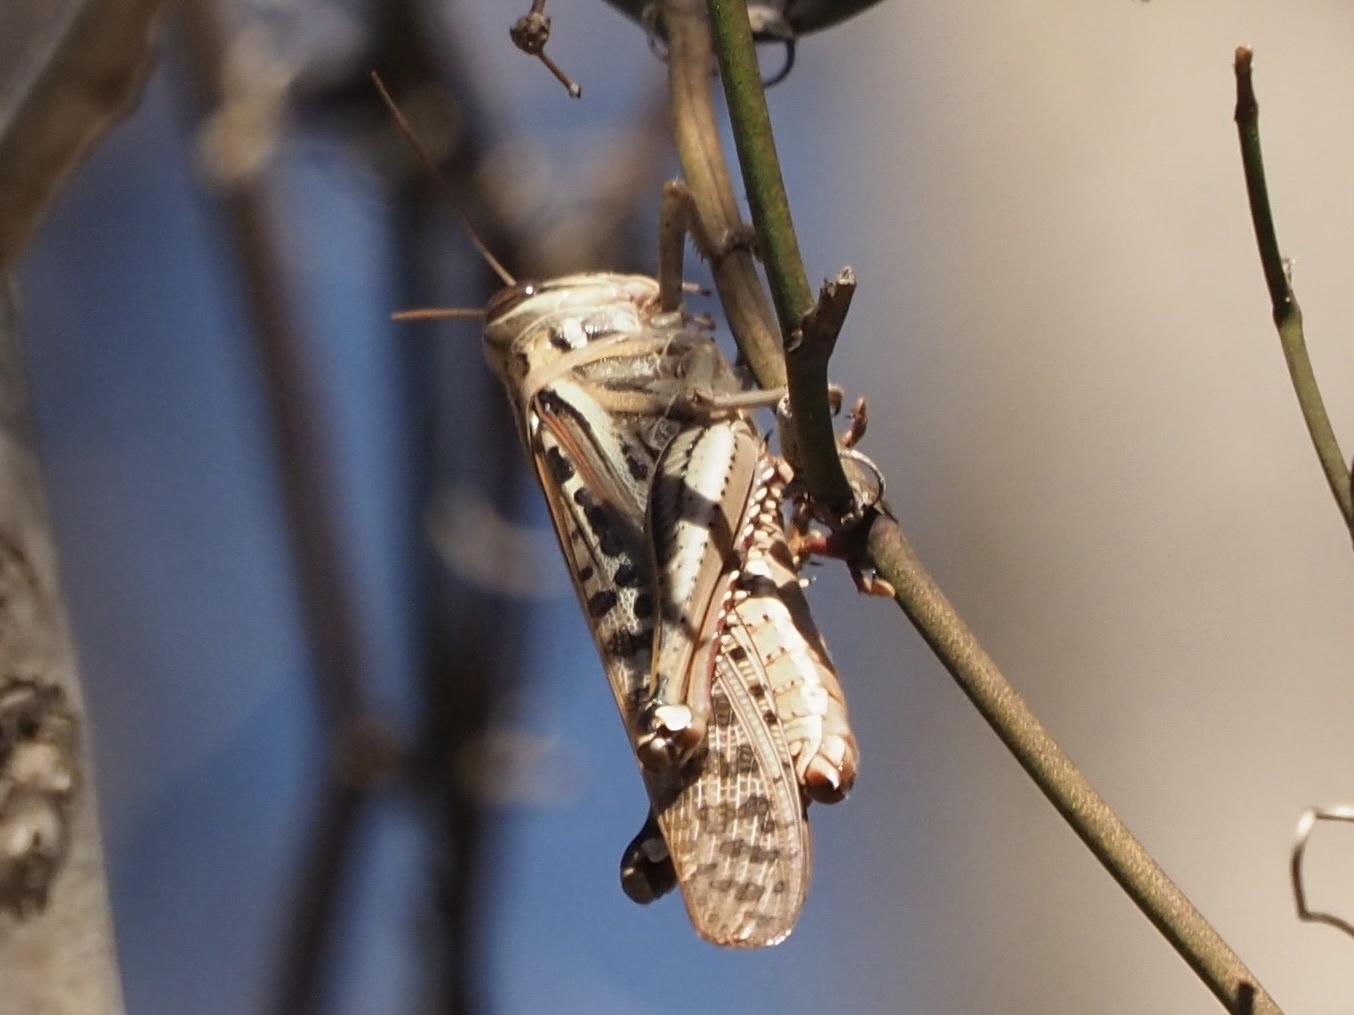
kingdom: Animalia
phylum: Arthropoda
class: Insecta
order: Orthoptera
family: Acrididae
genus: Schistocerca
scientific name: Schistocerca americana
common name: American bird locust
